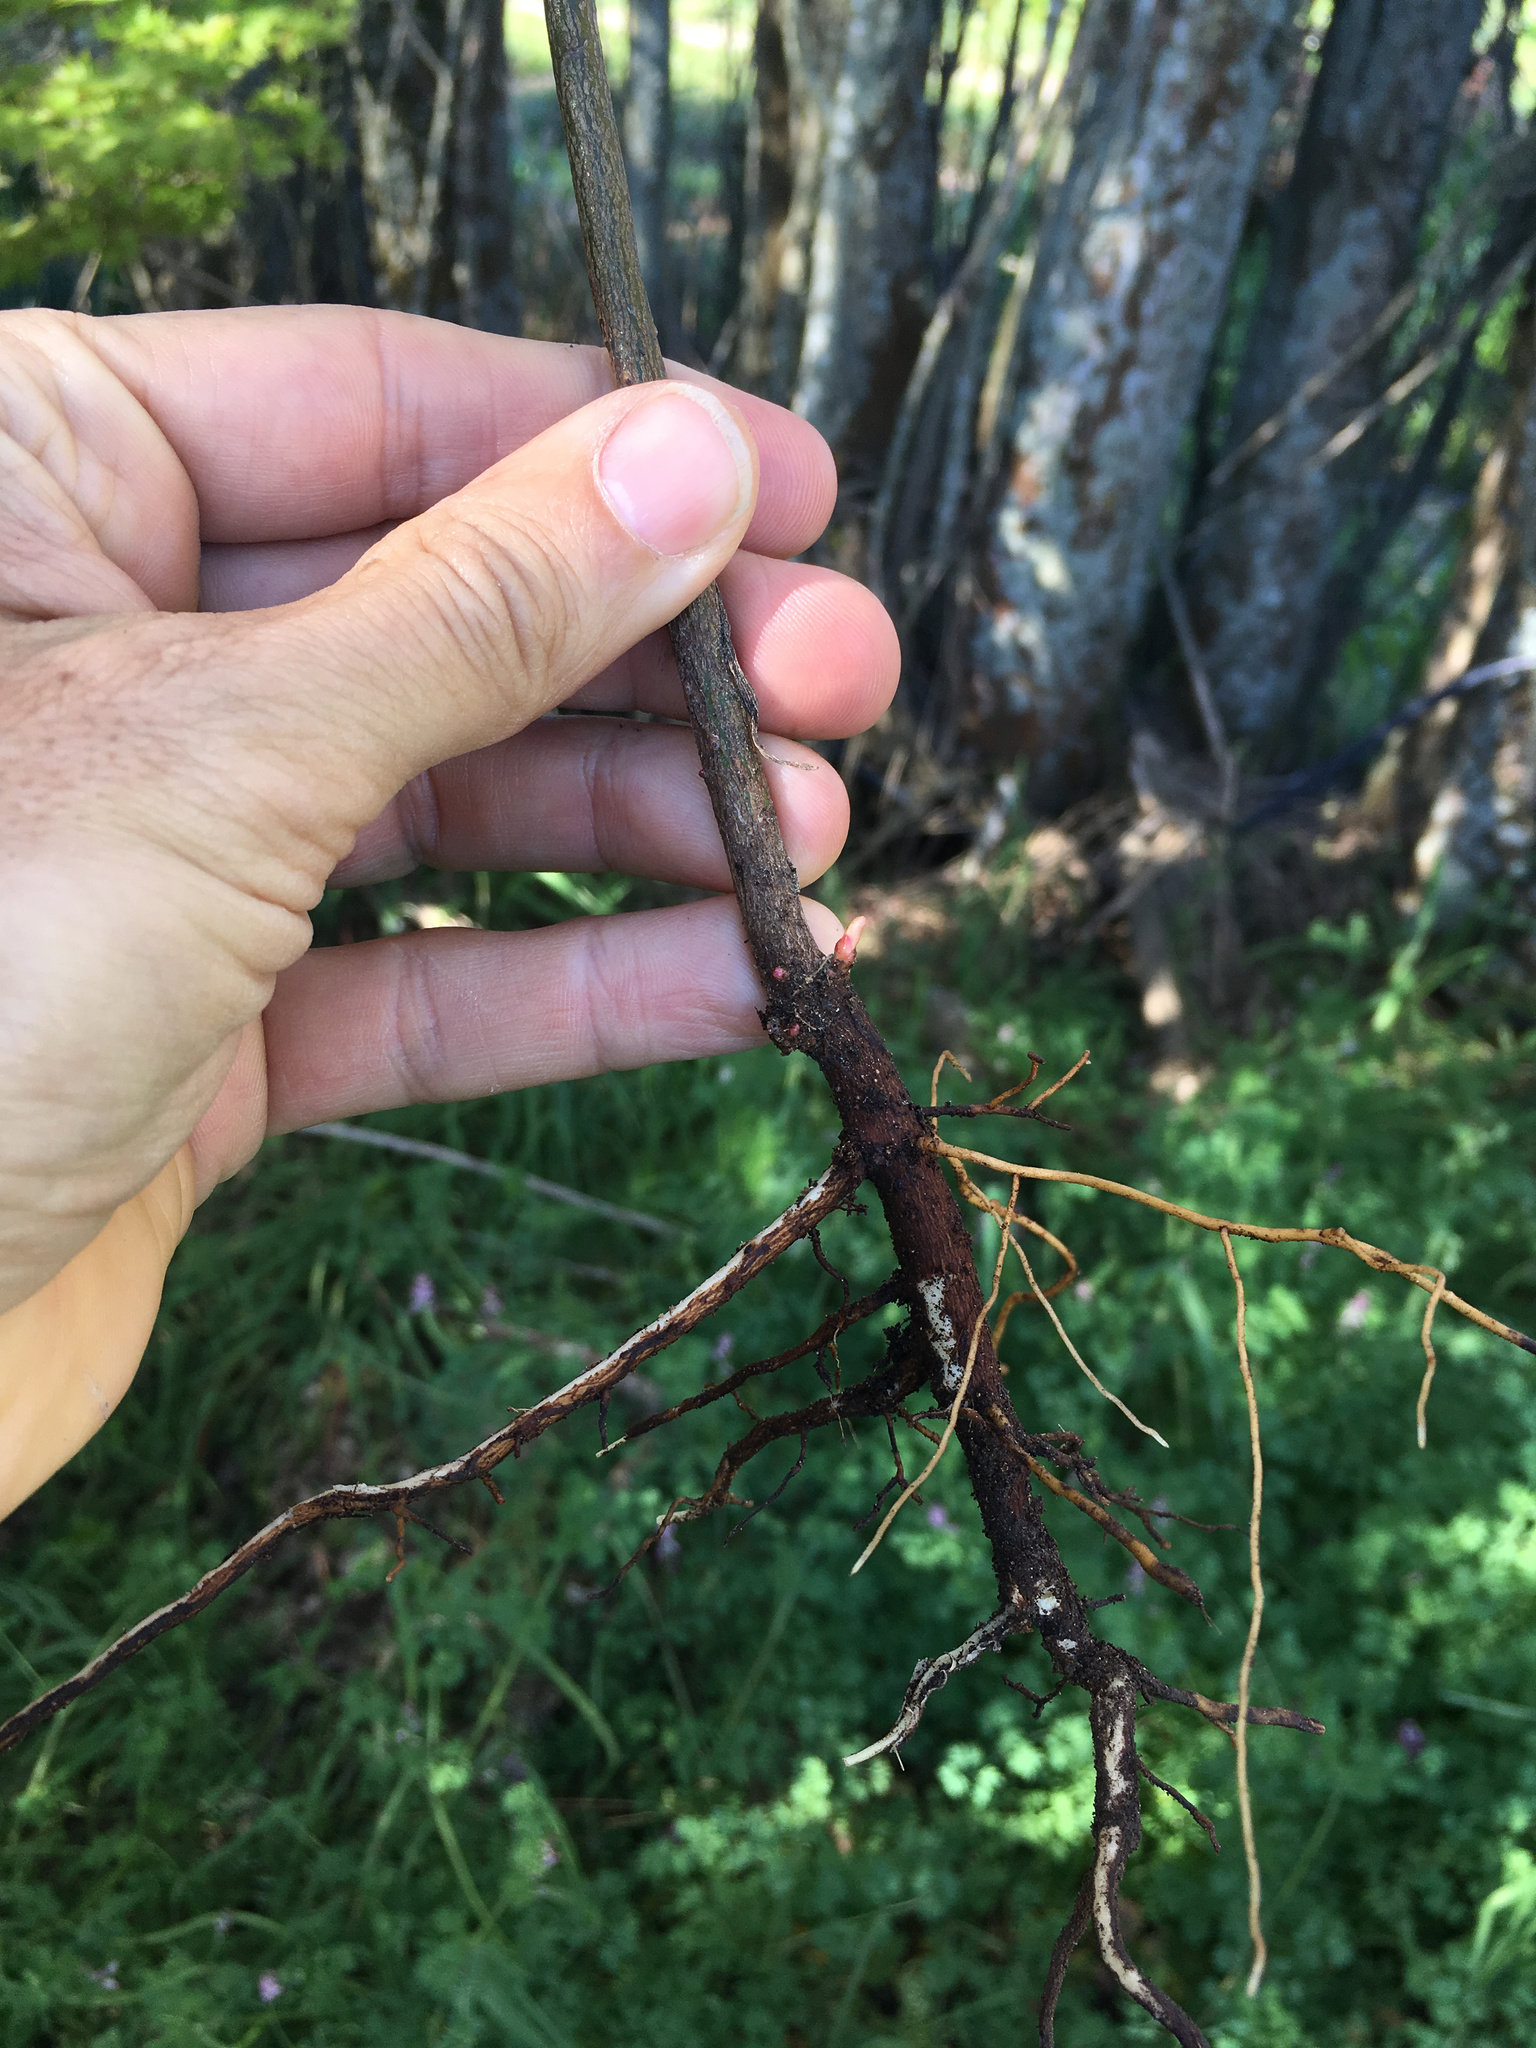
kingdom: Plantae
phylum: Tracheophyta
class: Magnoliopsida
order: Laurales
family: Lauraceae
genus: Laurus
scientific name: Laurus nobilis
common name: Bay
